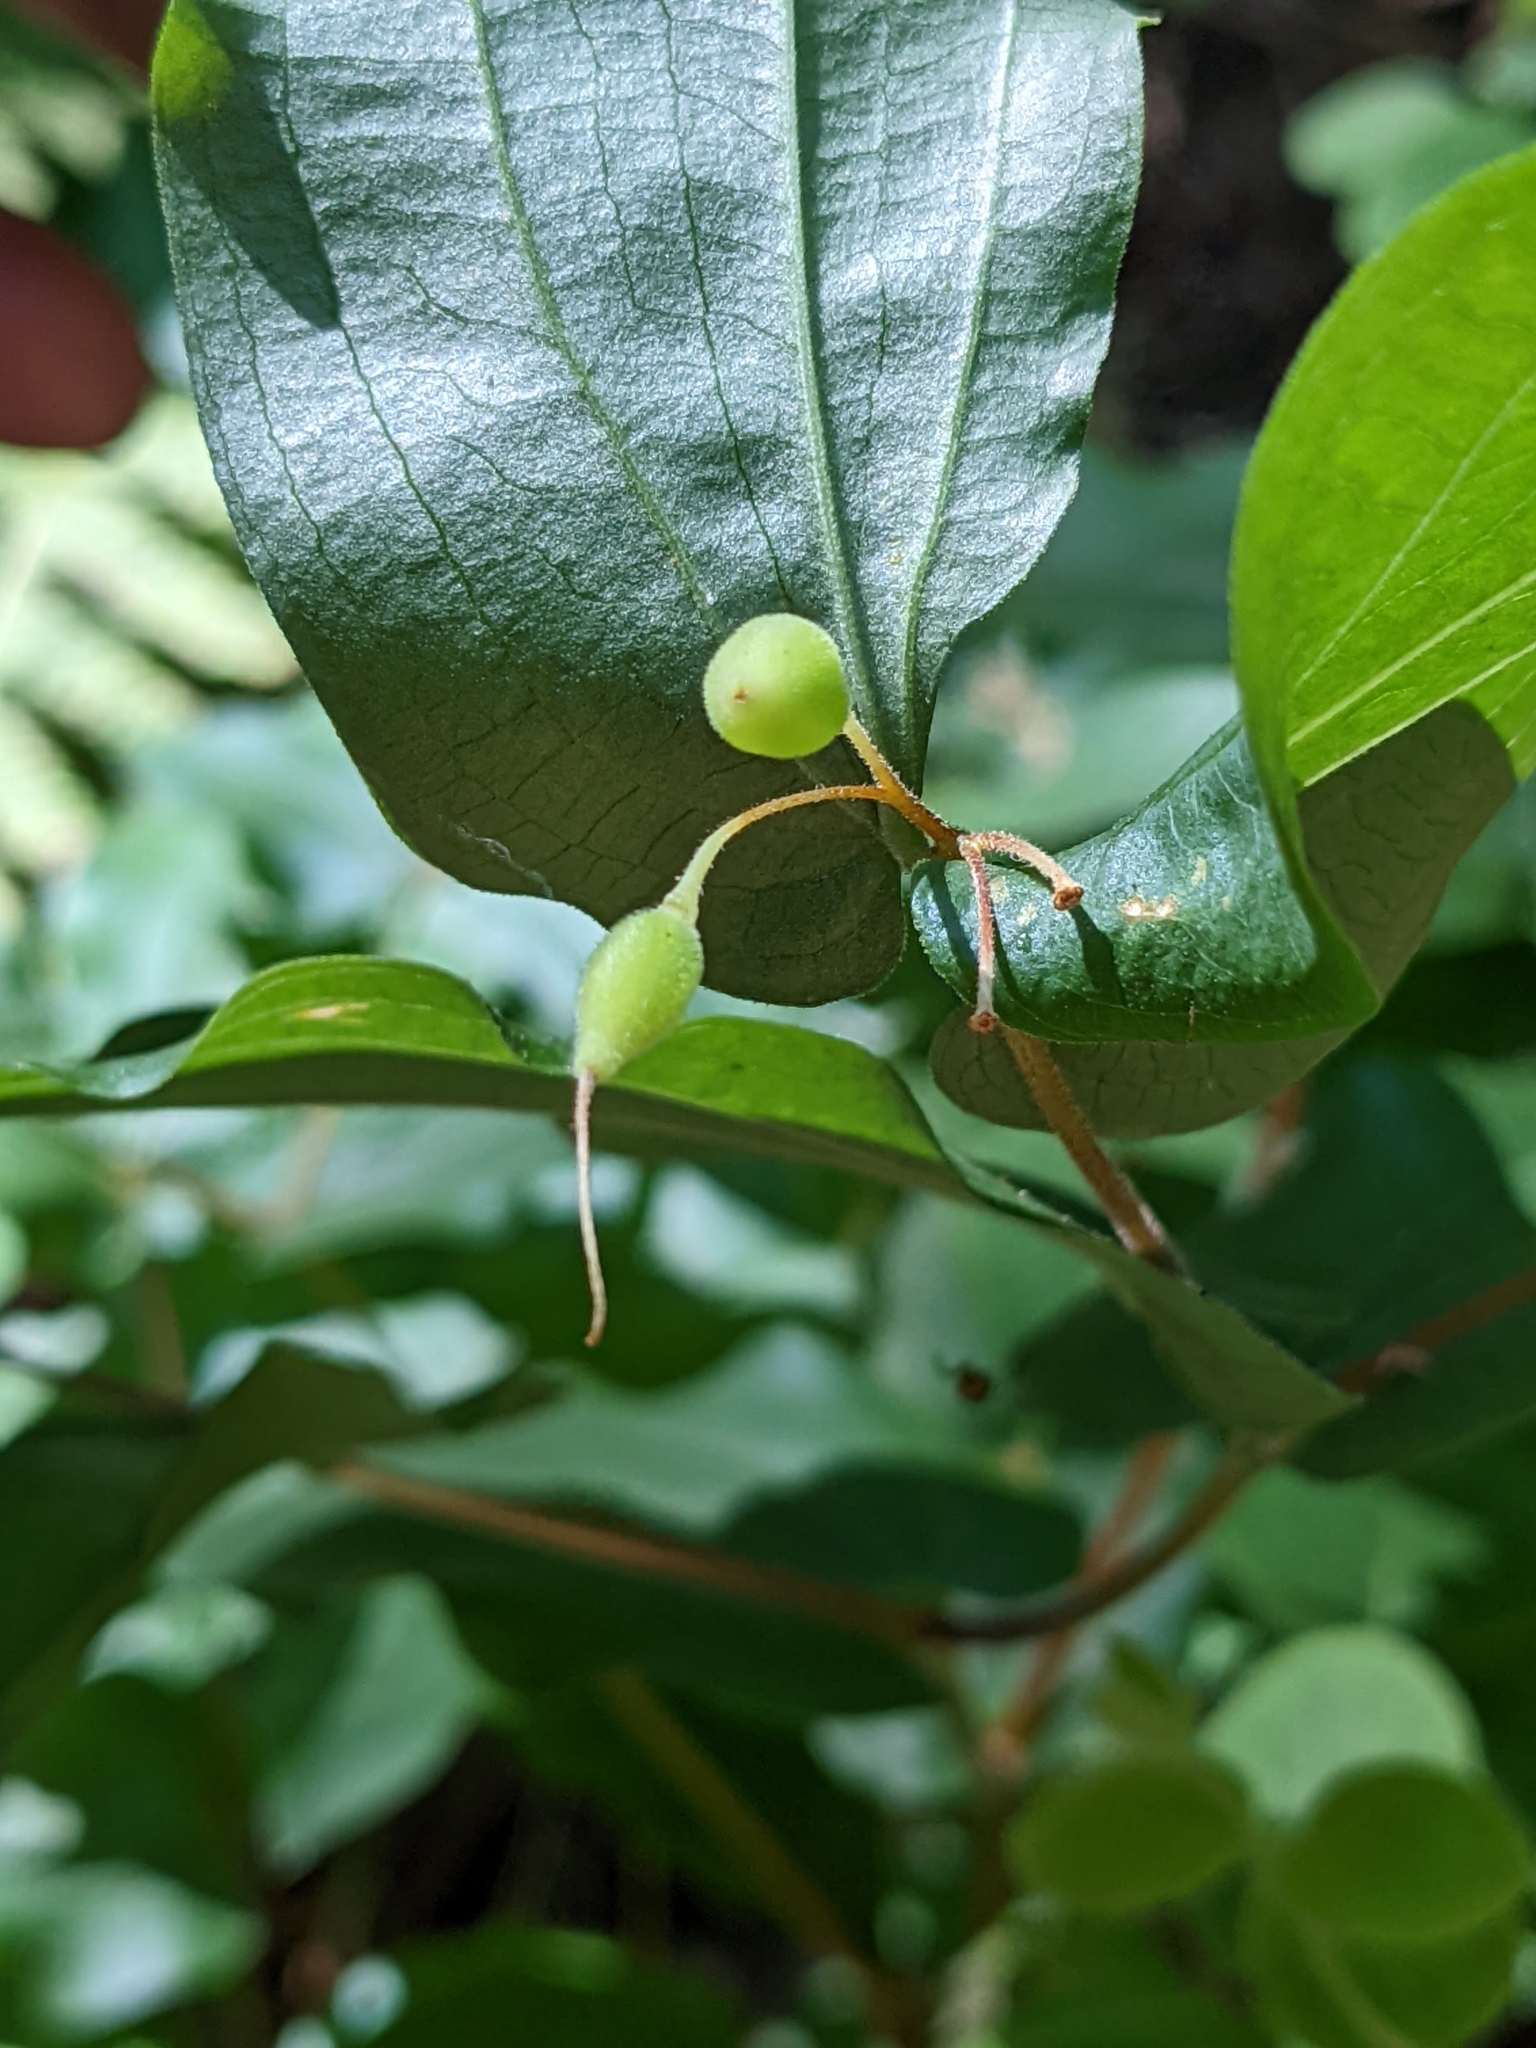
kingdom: Plantae
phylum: Tracheophyta
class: Liliopsida
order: Liliales
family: Liliaceae
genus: Prosartes
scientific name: Prosartes hookeri
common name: Fairy-bells
